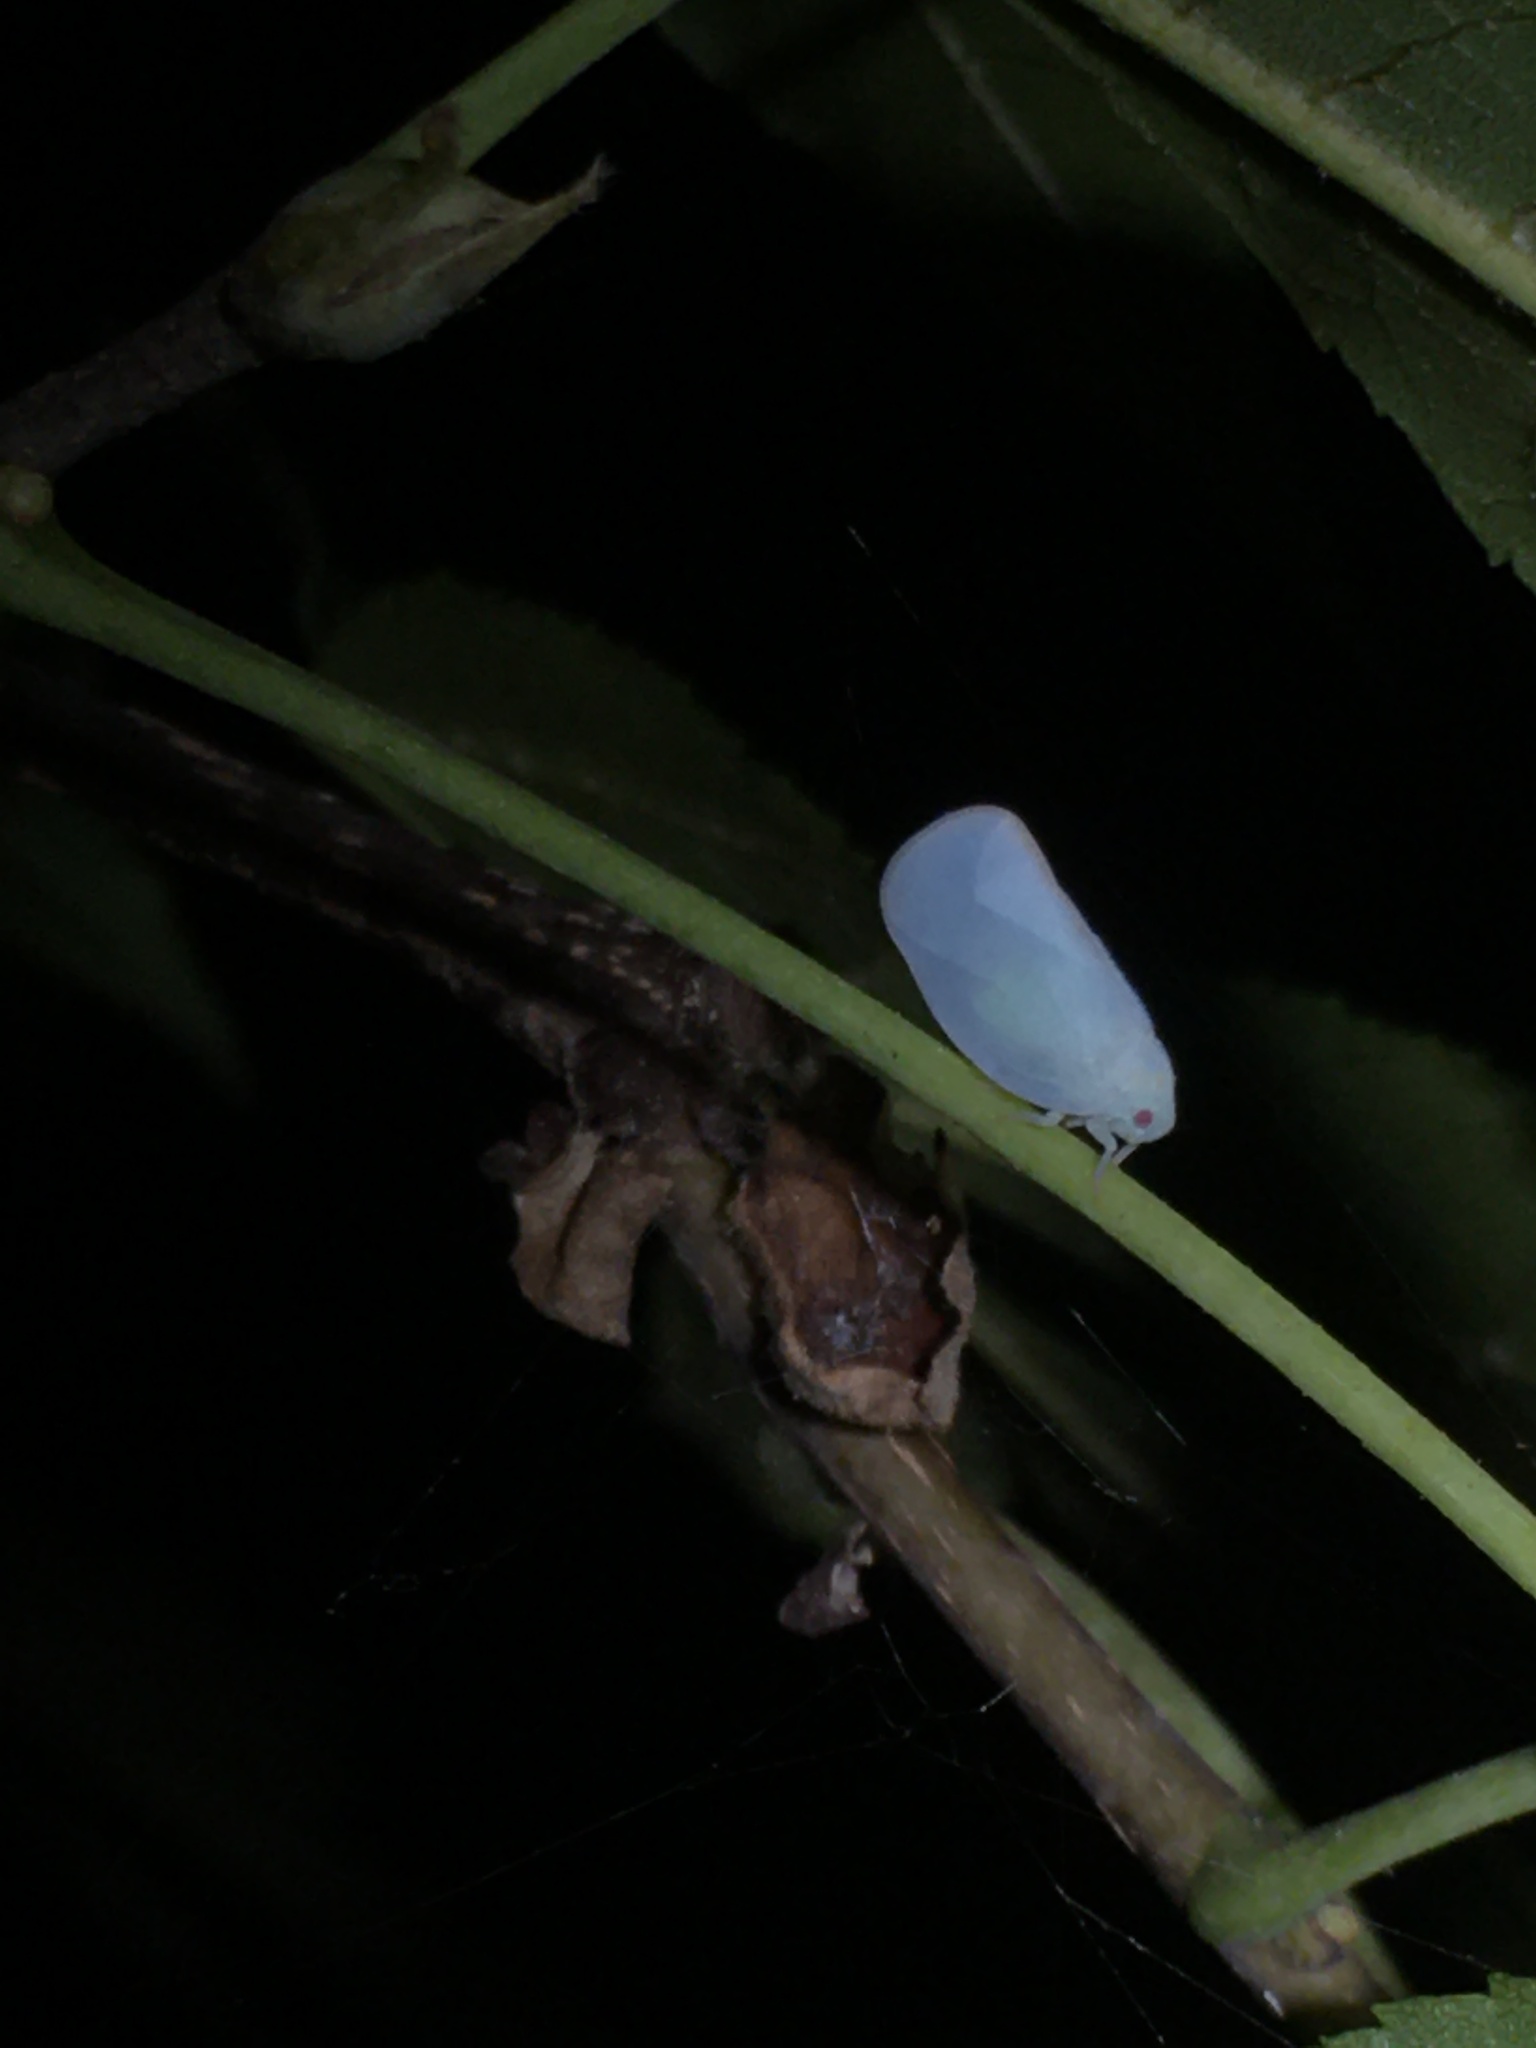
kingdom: Animalia
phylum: Arthropoda
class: Insecta
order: Hemiptera
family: Flatidae
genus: Ormenoides
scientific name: Ormenoides venusta
